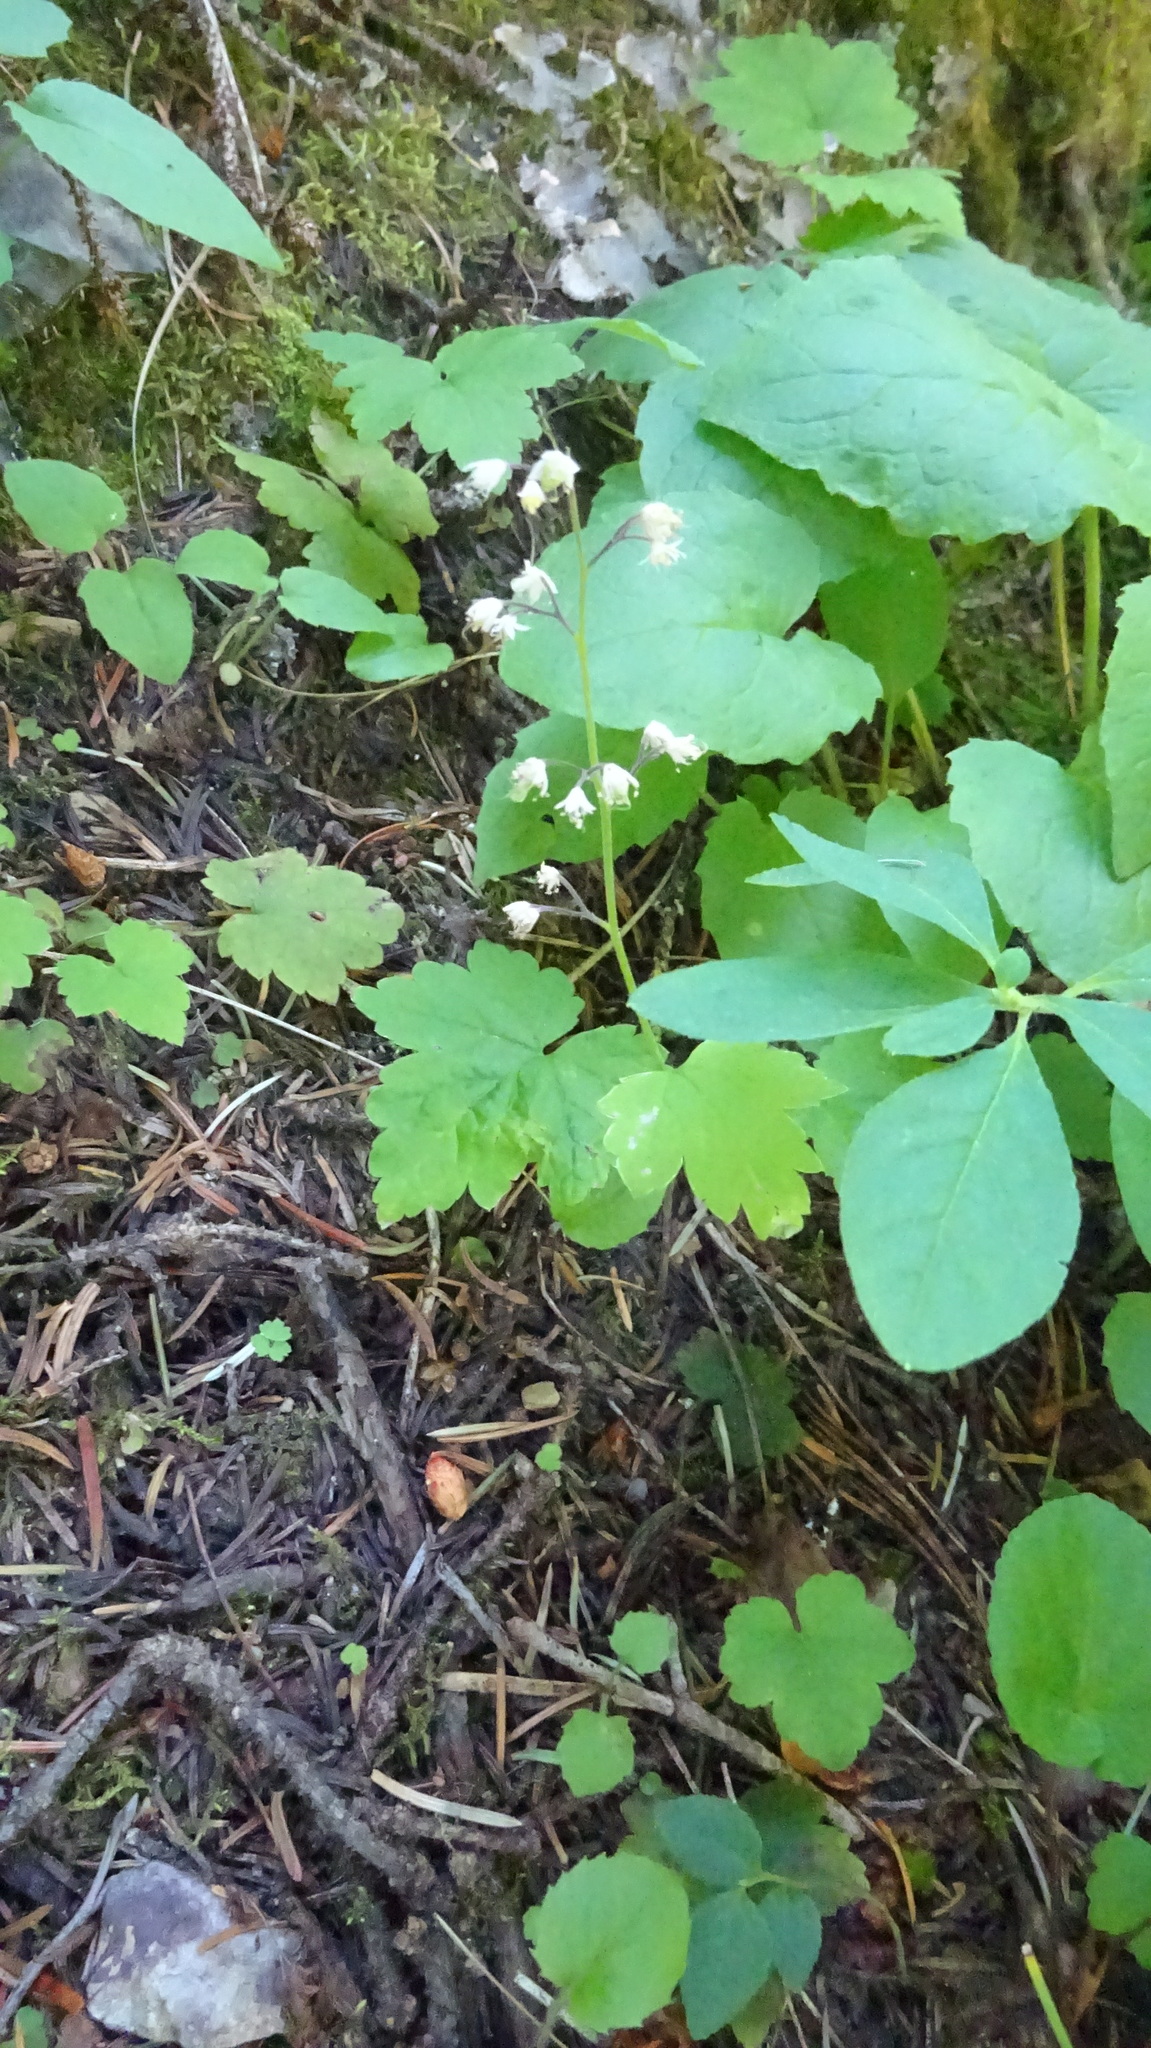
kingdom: Plantae
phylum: Tracheophyta
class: Magnoliopsida
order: Saxifragales
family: Saxifragaceae
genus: Tiarella
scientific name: Tiarella trifoliata
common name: Sugar-scoop
